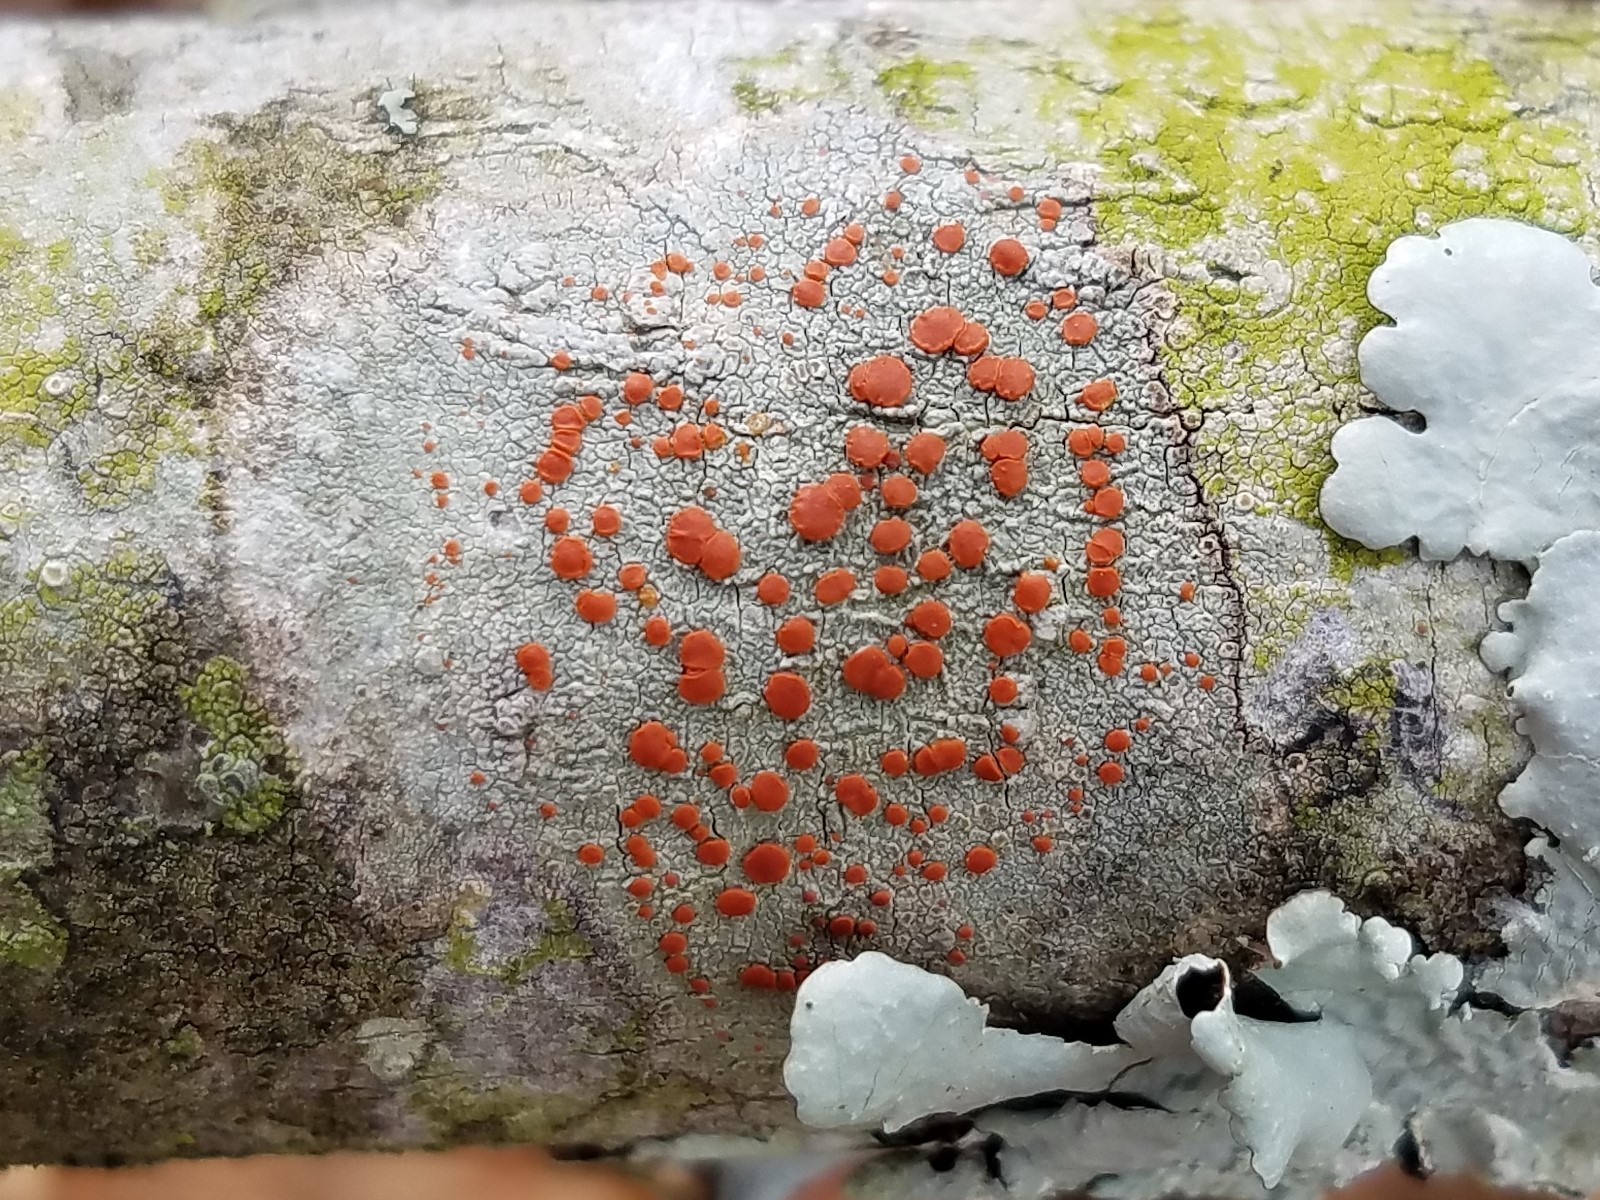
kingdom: Fungi
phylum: Ascomycota
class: Lecanoromycetes
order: Lecanorales
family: Ramboldiaceae
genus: Ramboldia
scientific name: Ramboldia russula
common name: Red heads
